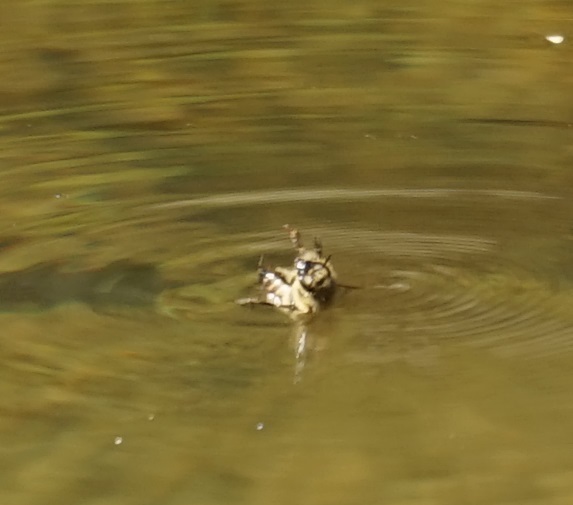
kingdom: Animalia
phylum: Arthropoda
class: Insecta
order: Hymenoptera
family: Apidae
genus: Apis
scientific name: Apis mellifera
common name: Honey bee
